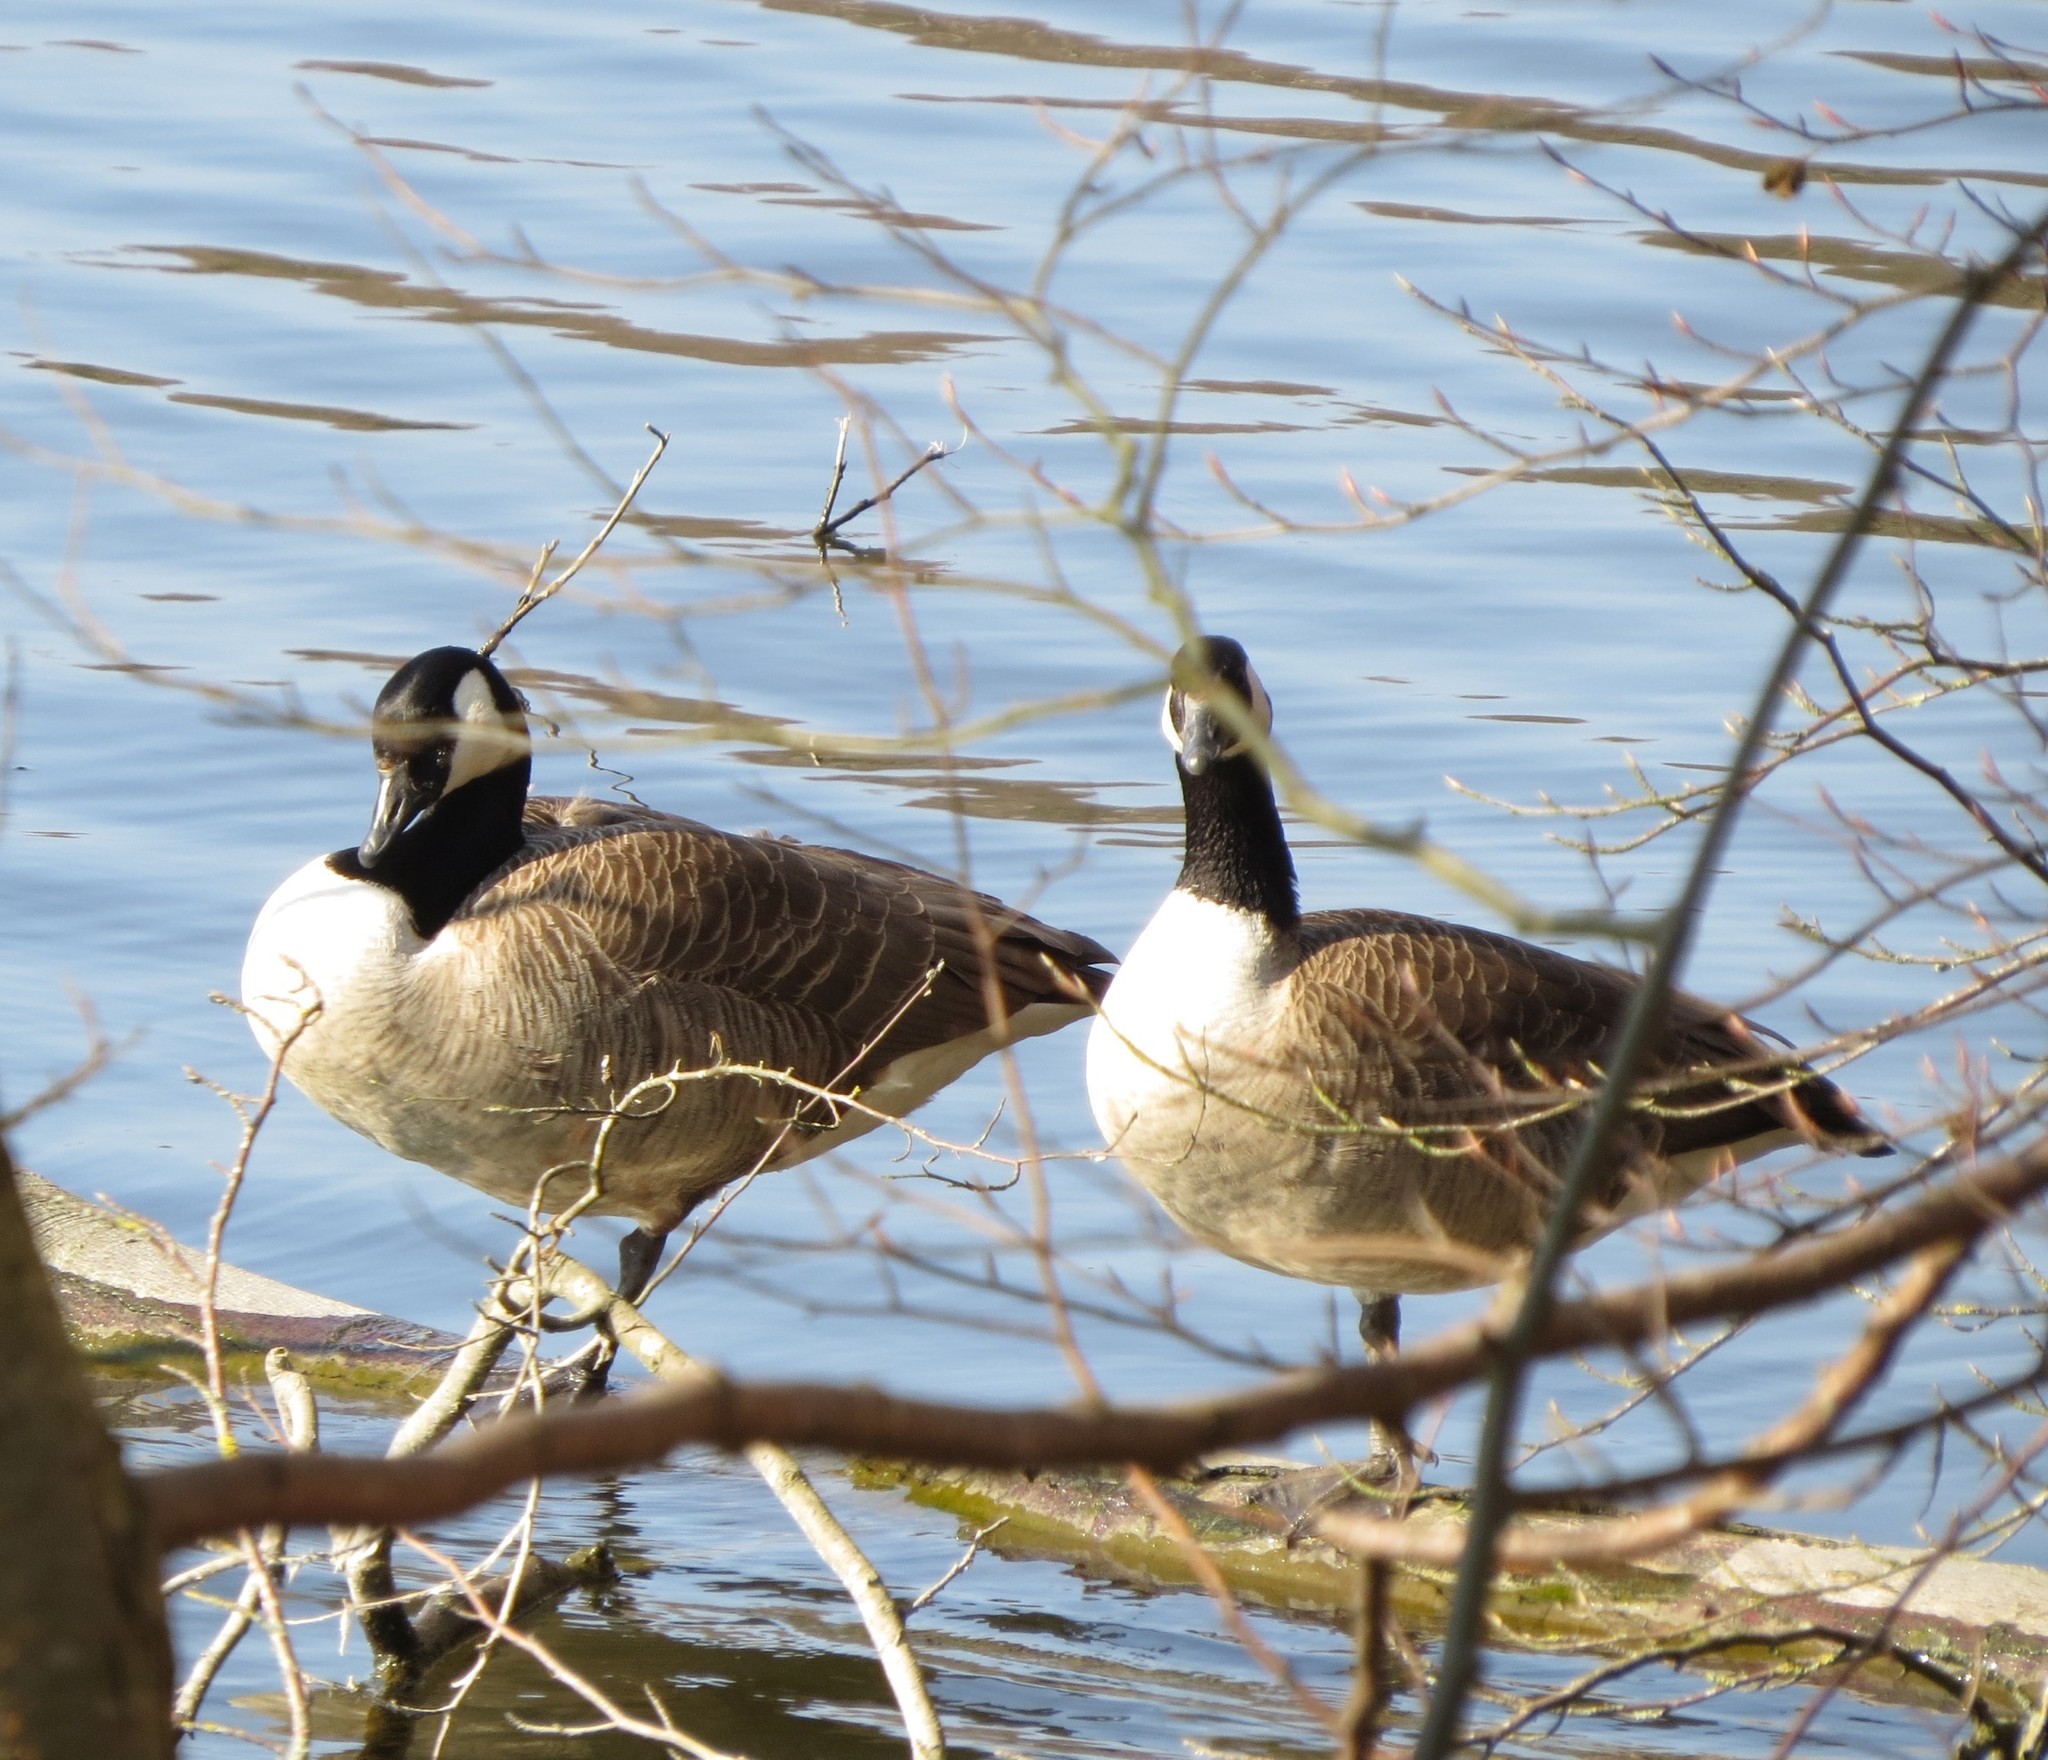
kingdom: Animalia
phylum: Chordata
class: Aves
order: Anseriformes
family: Anatidae
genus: Branta
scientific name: Branta canadensis
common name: Canada goose
